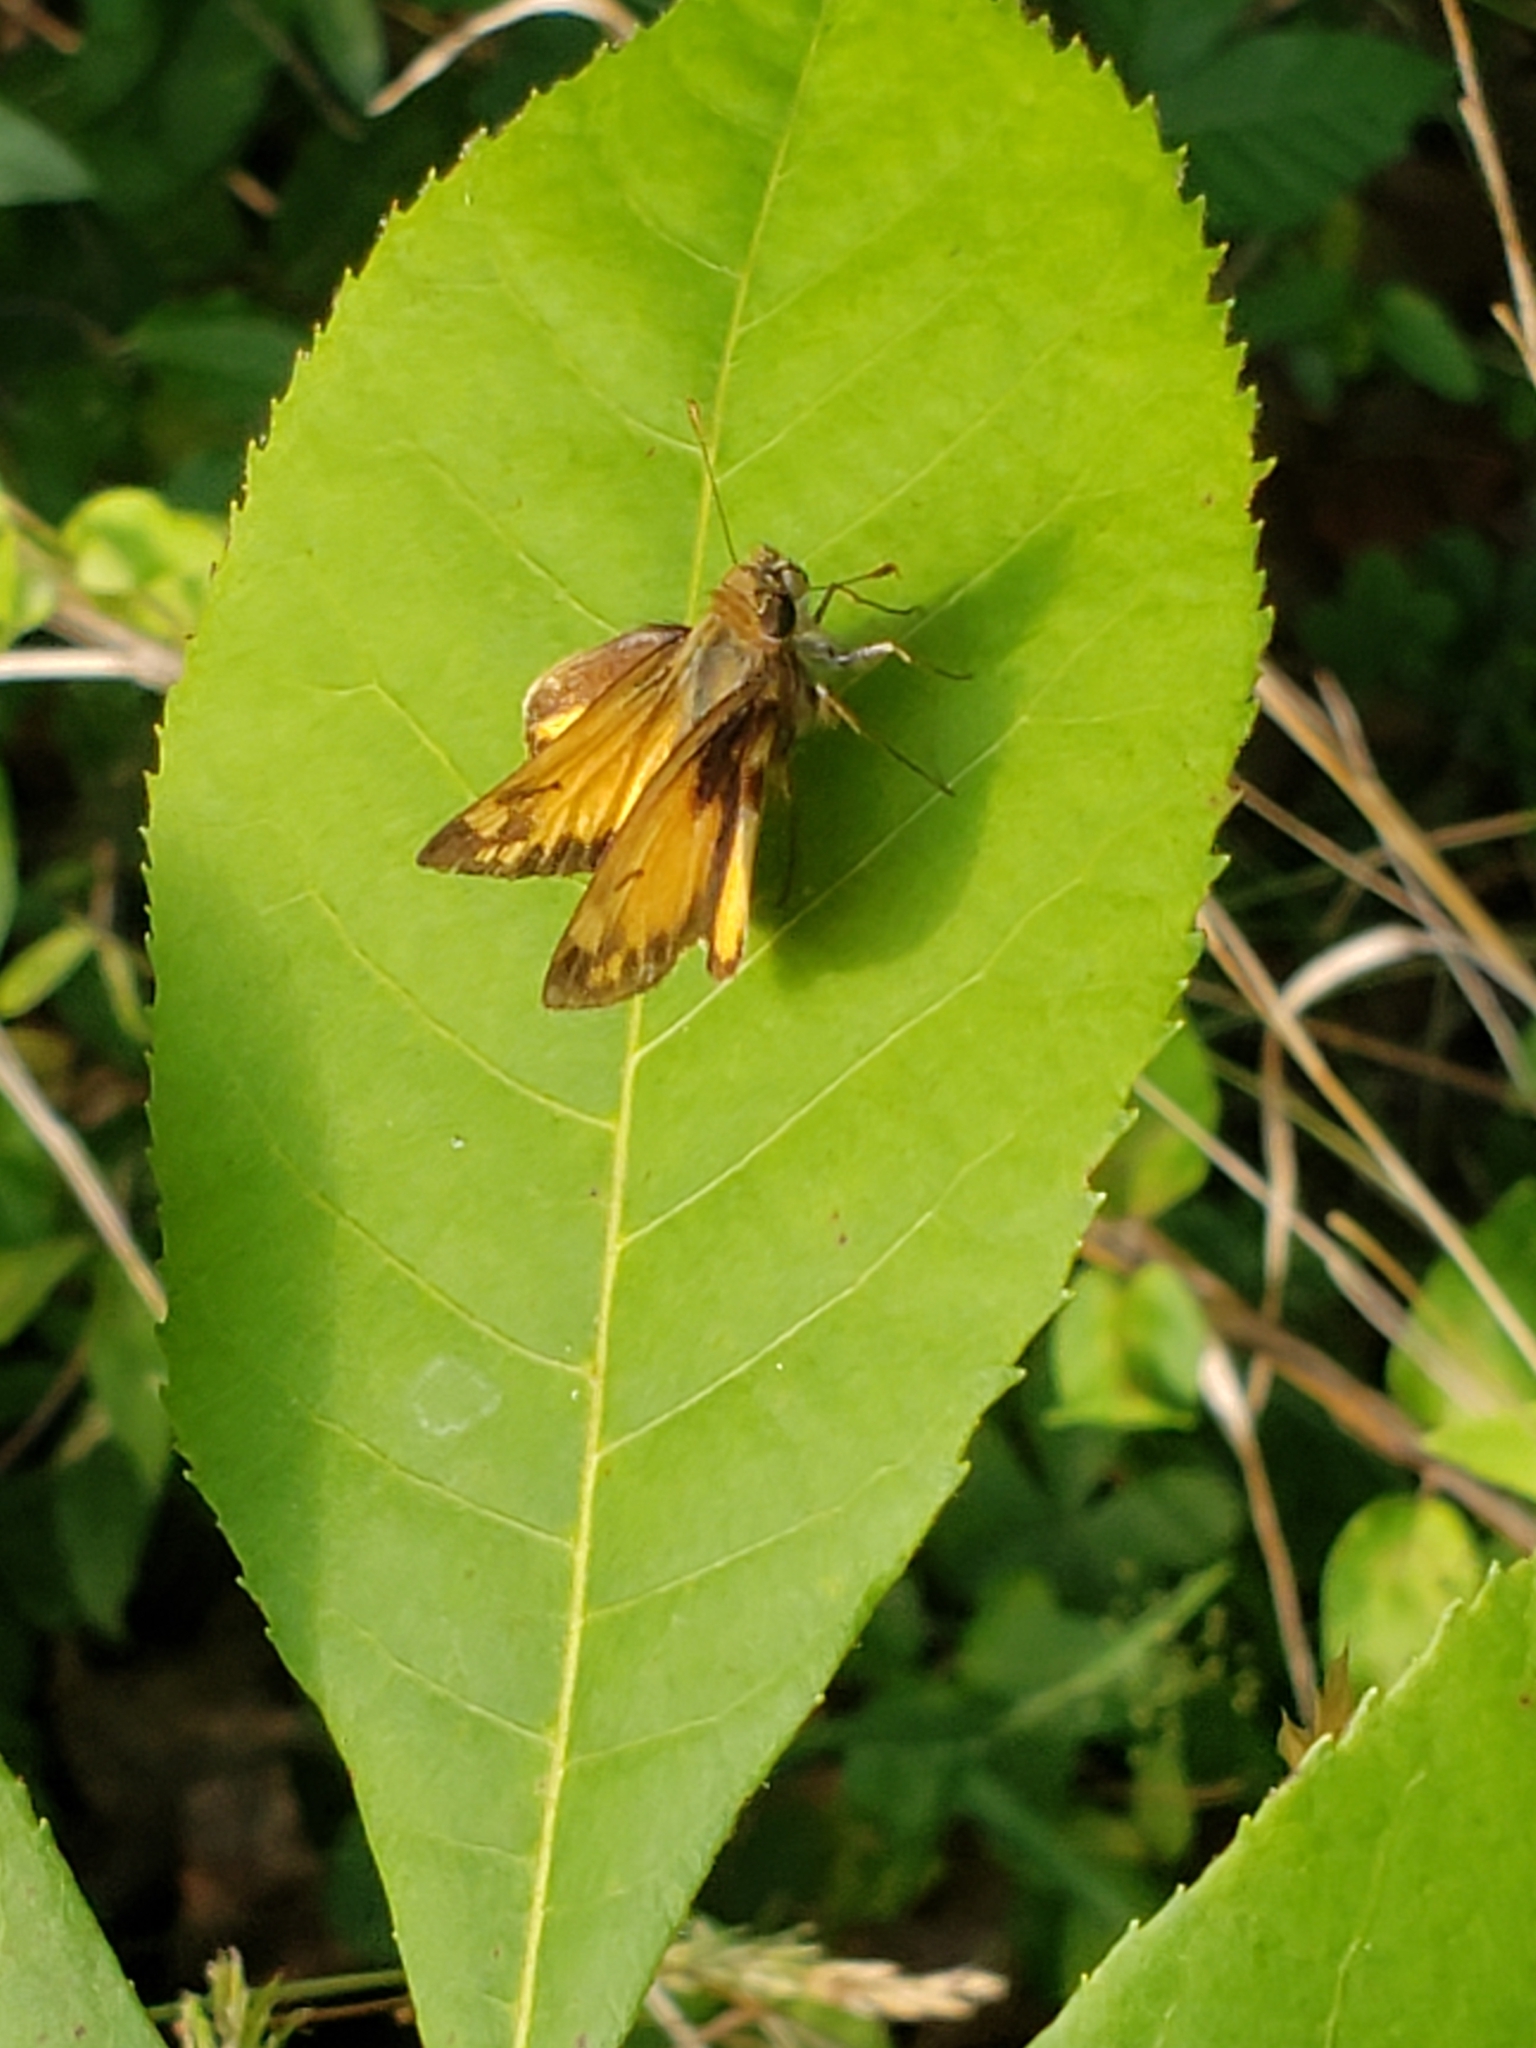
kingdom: Animalia
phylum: Arthropoda
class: Insecta
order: Lepidoptera
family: Hesperiidae
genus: Lon
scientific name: Lon zabulon
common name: Zabulon skipper
